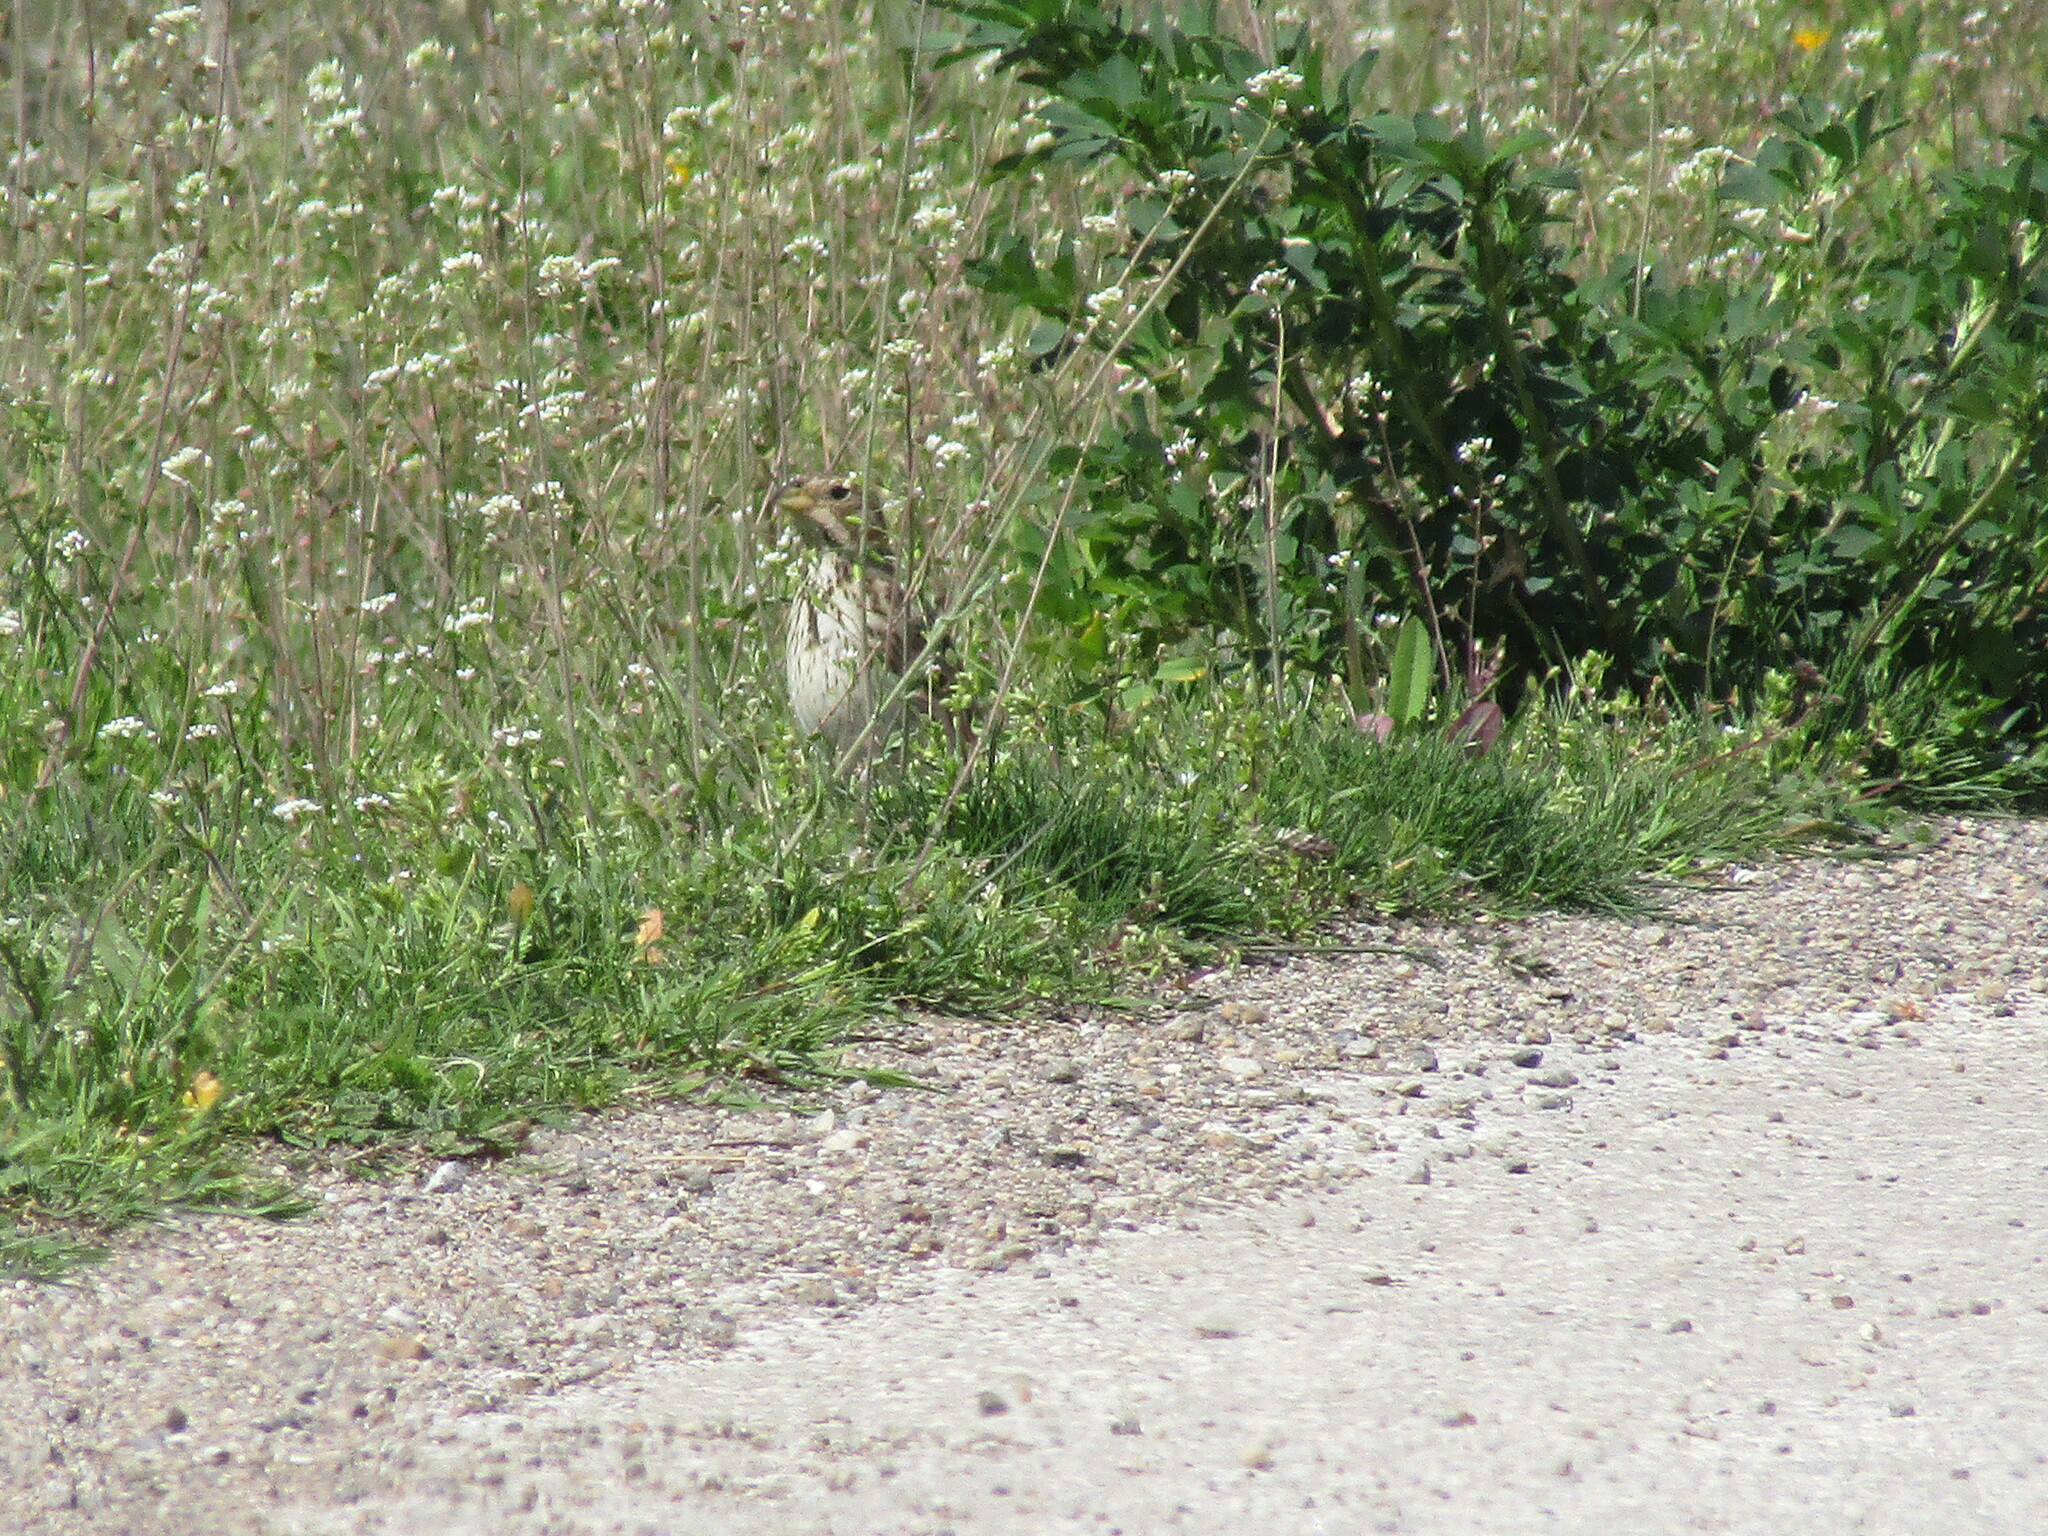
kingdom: Animalia
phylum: Chordata
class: Aves
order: Passeriformes
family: Emberizidae
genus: Emberiza
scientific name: Emberiza calandra
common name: Corn bunting
